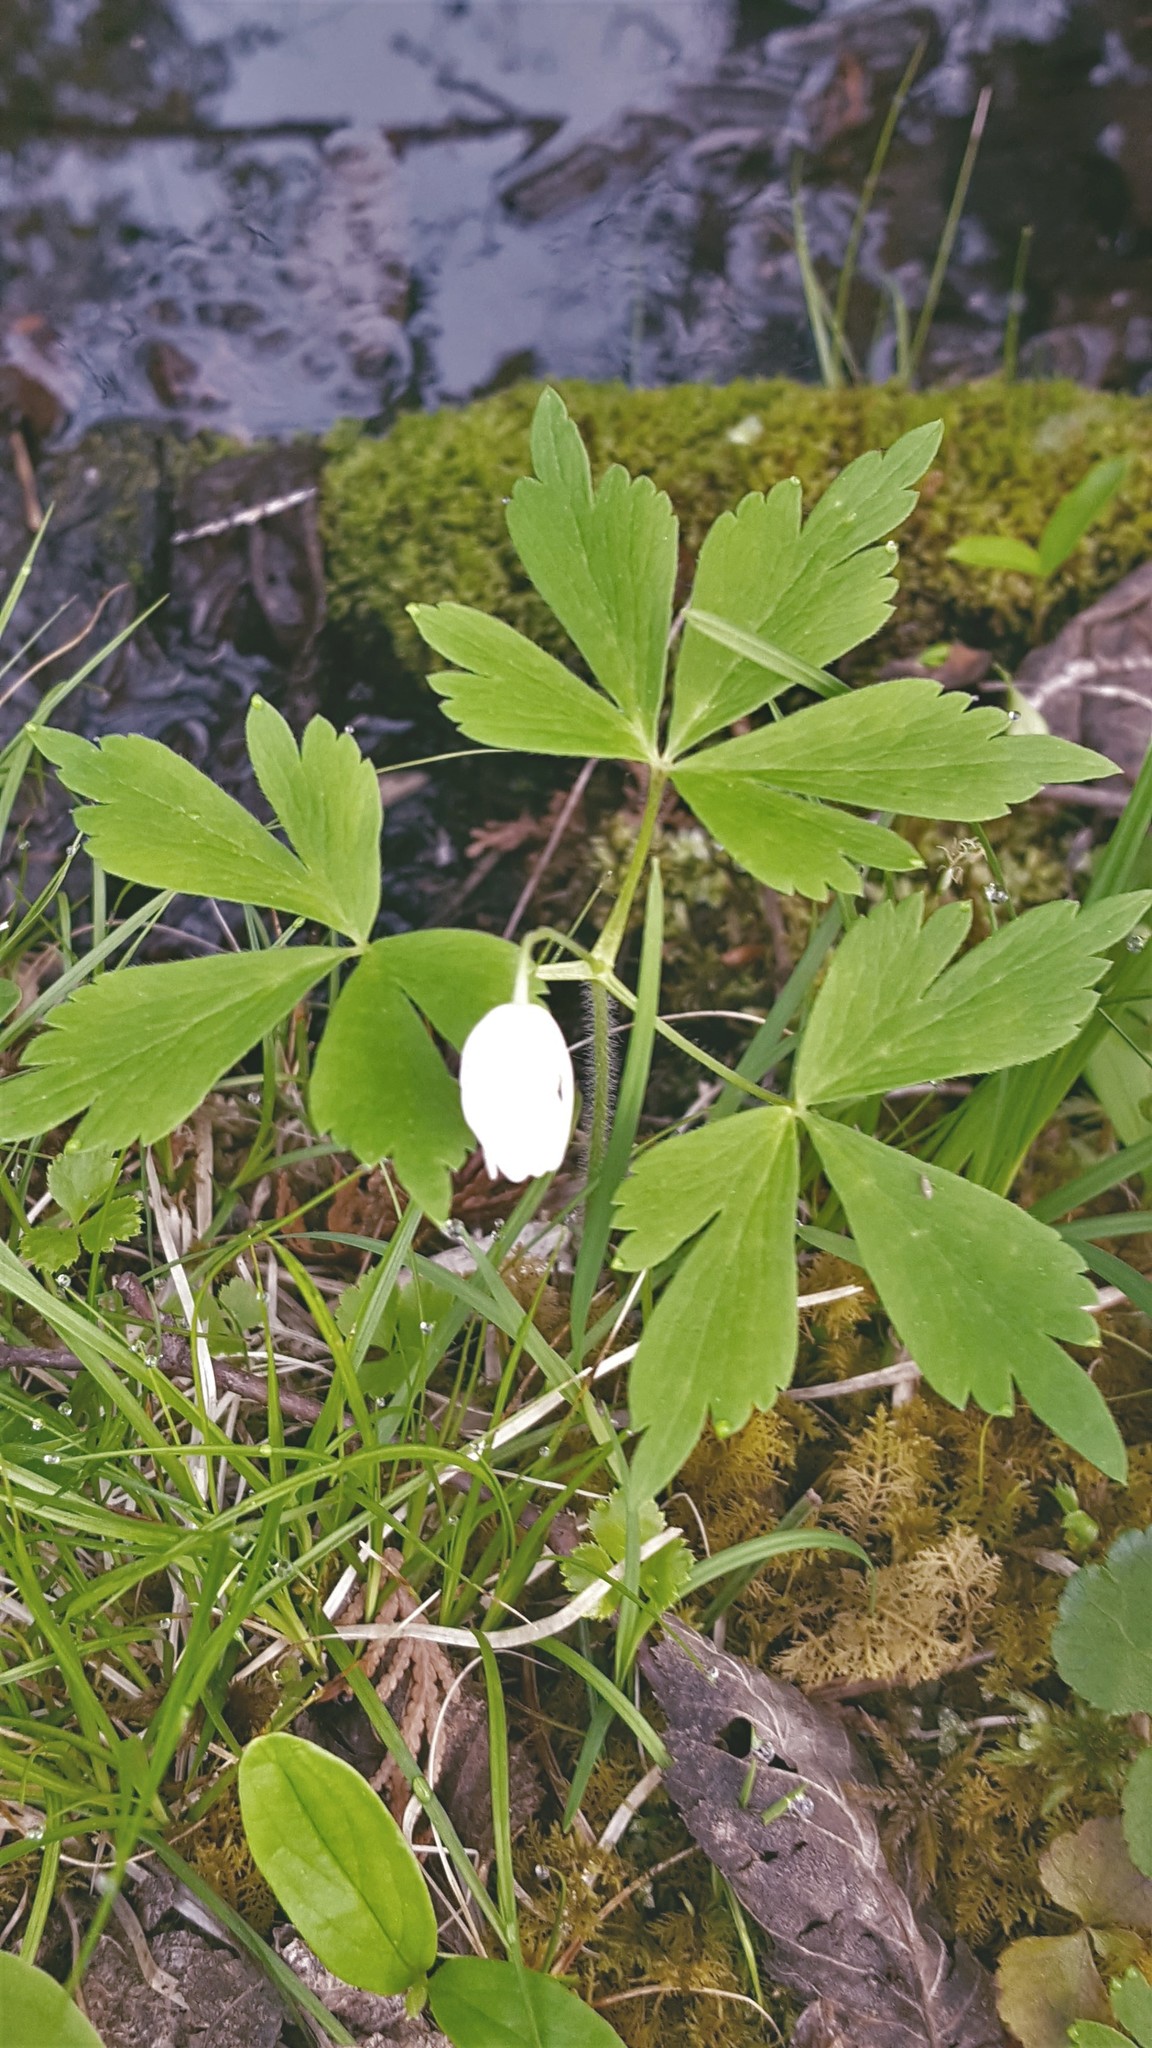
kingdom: Plantae
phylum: Tracheophyta
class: Magnoliopsida
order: Ranunculales
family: Ranunculaceae
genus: Anemone
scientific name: Anemone quinquefolia
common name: Wood anemone
